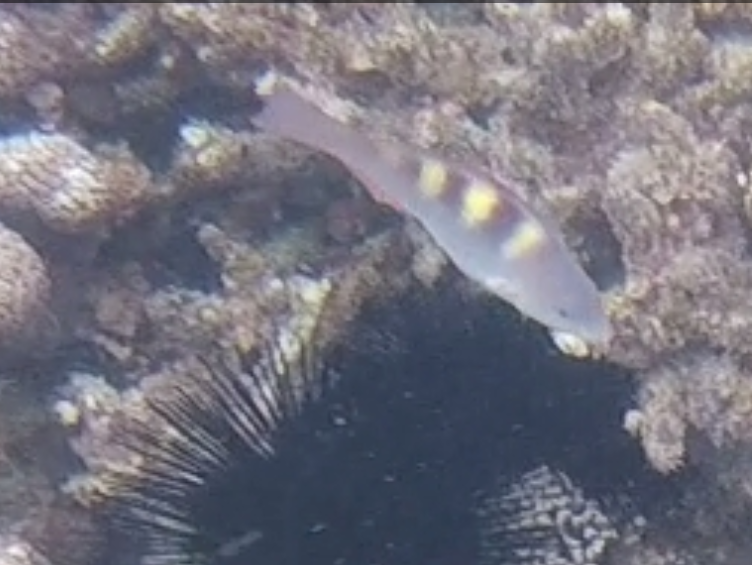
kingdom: Animalia
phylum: Chordata
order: Perciformes
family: Scaridae
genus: Scarus
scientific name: Scarus scaber
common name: Dusky-capped parrotfish
